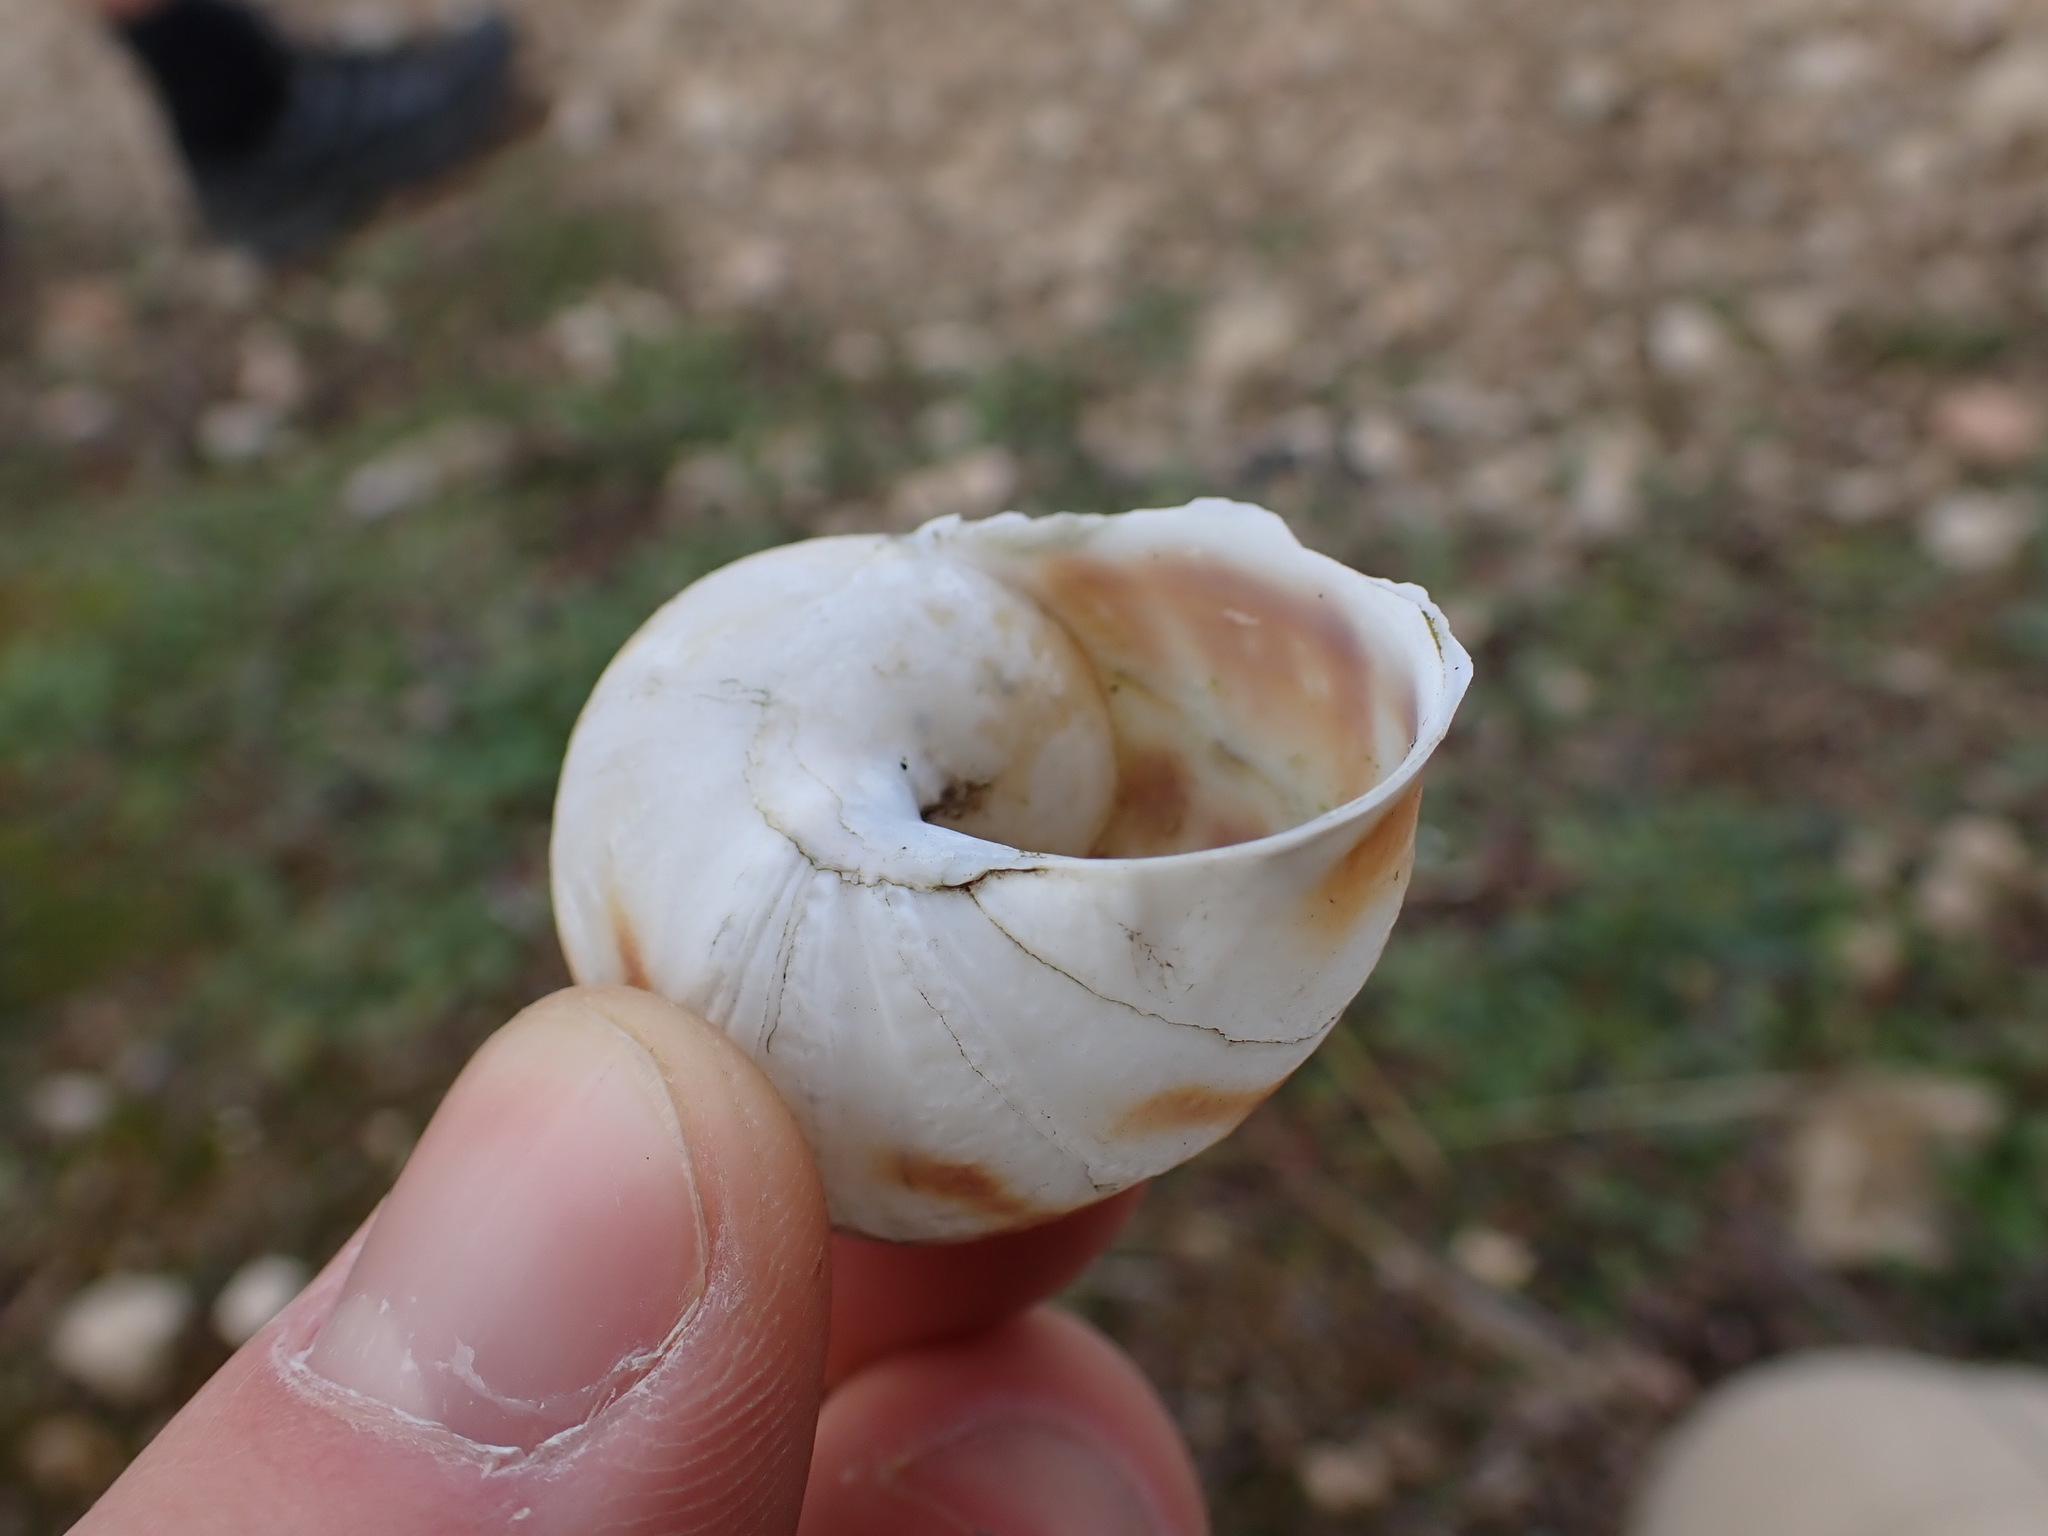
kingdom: Animalia
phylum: Mollusca
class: Gastropoda
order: Stylommatophora
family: Helicidae
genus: Cornu
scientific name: Cornu aspersum
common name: Brown garden snail
